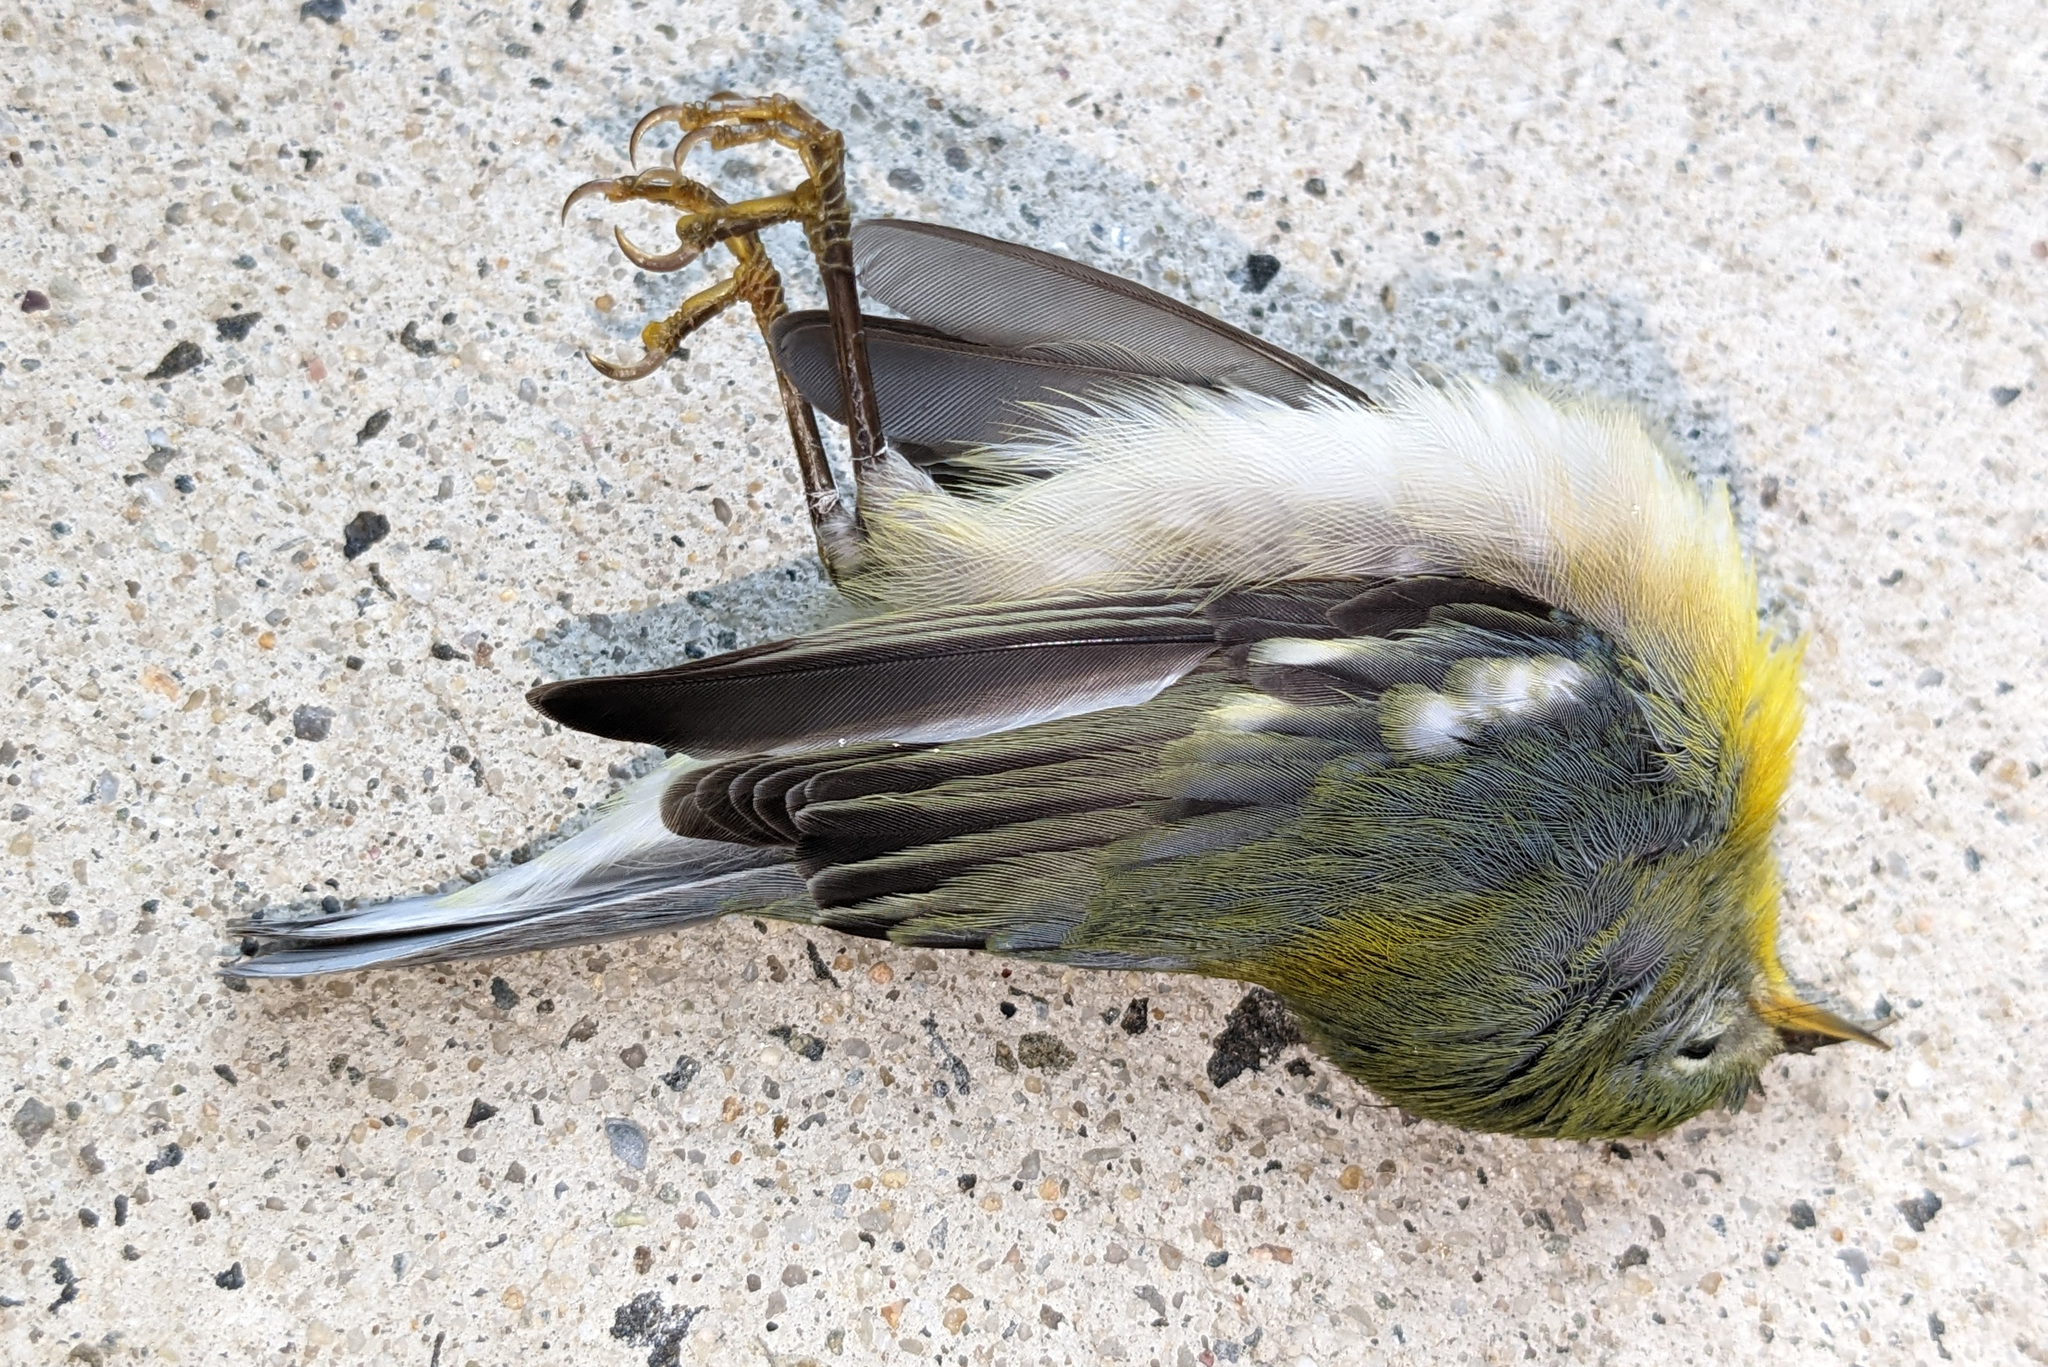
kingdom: Animalia
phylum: Chordata
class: Aves
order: Passeriformes
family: Parulidae
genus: Setophaga
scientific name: Setophaga americana
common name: Northern parula
